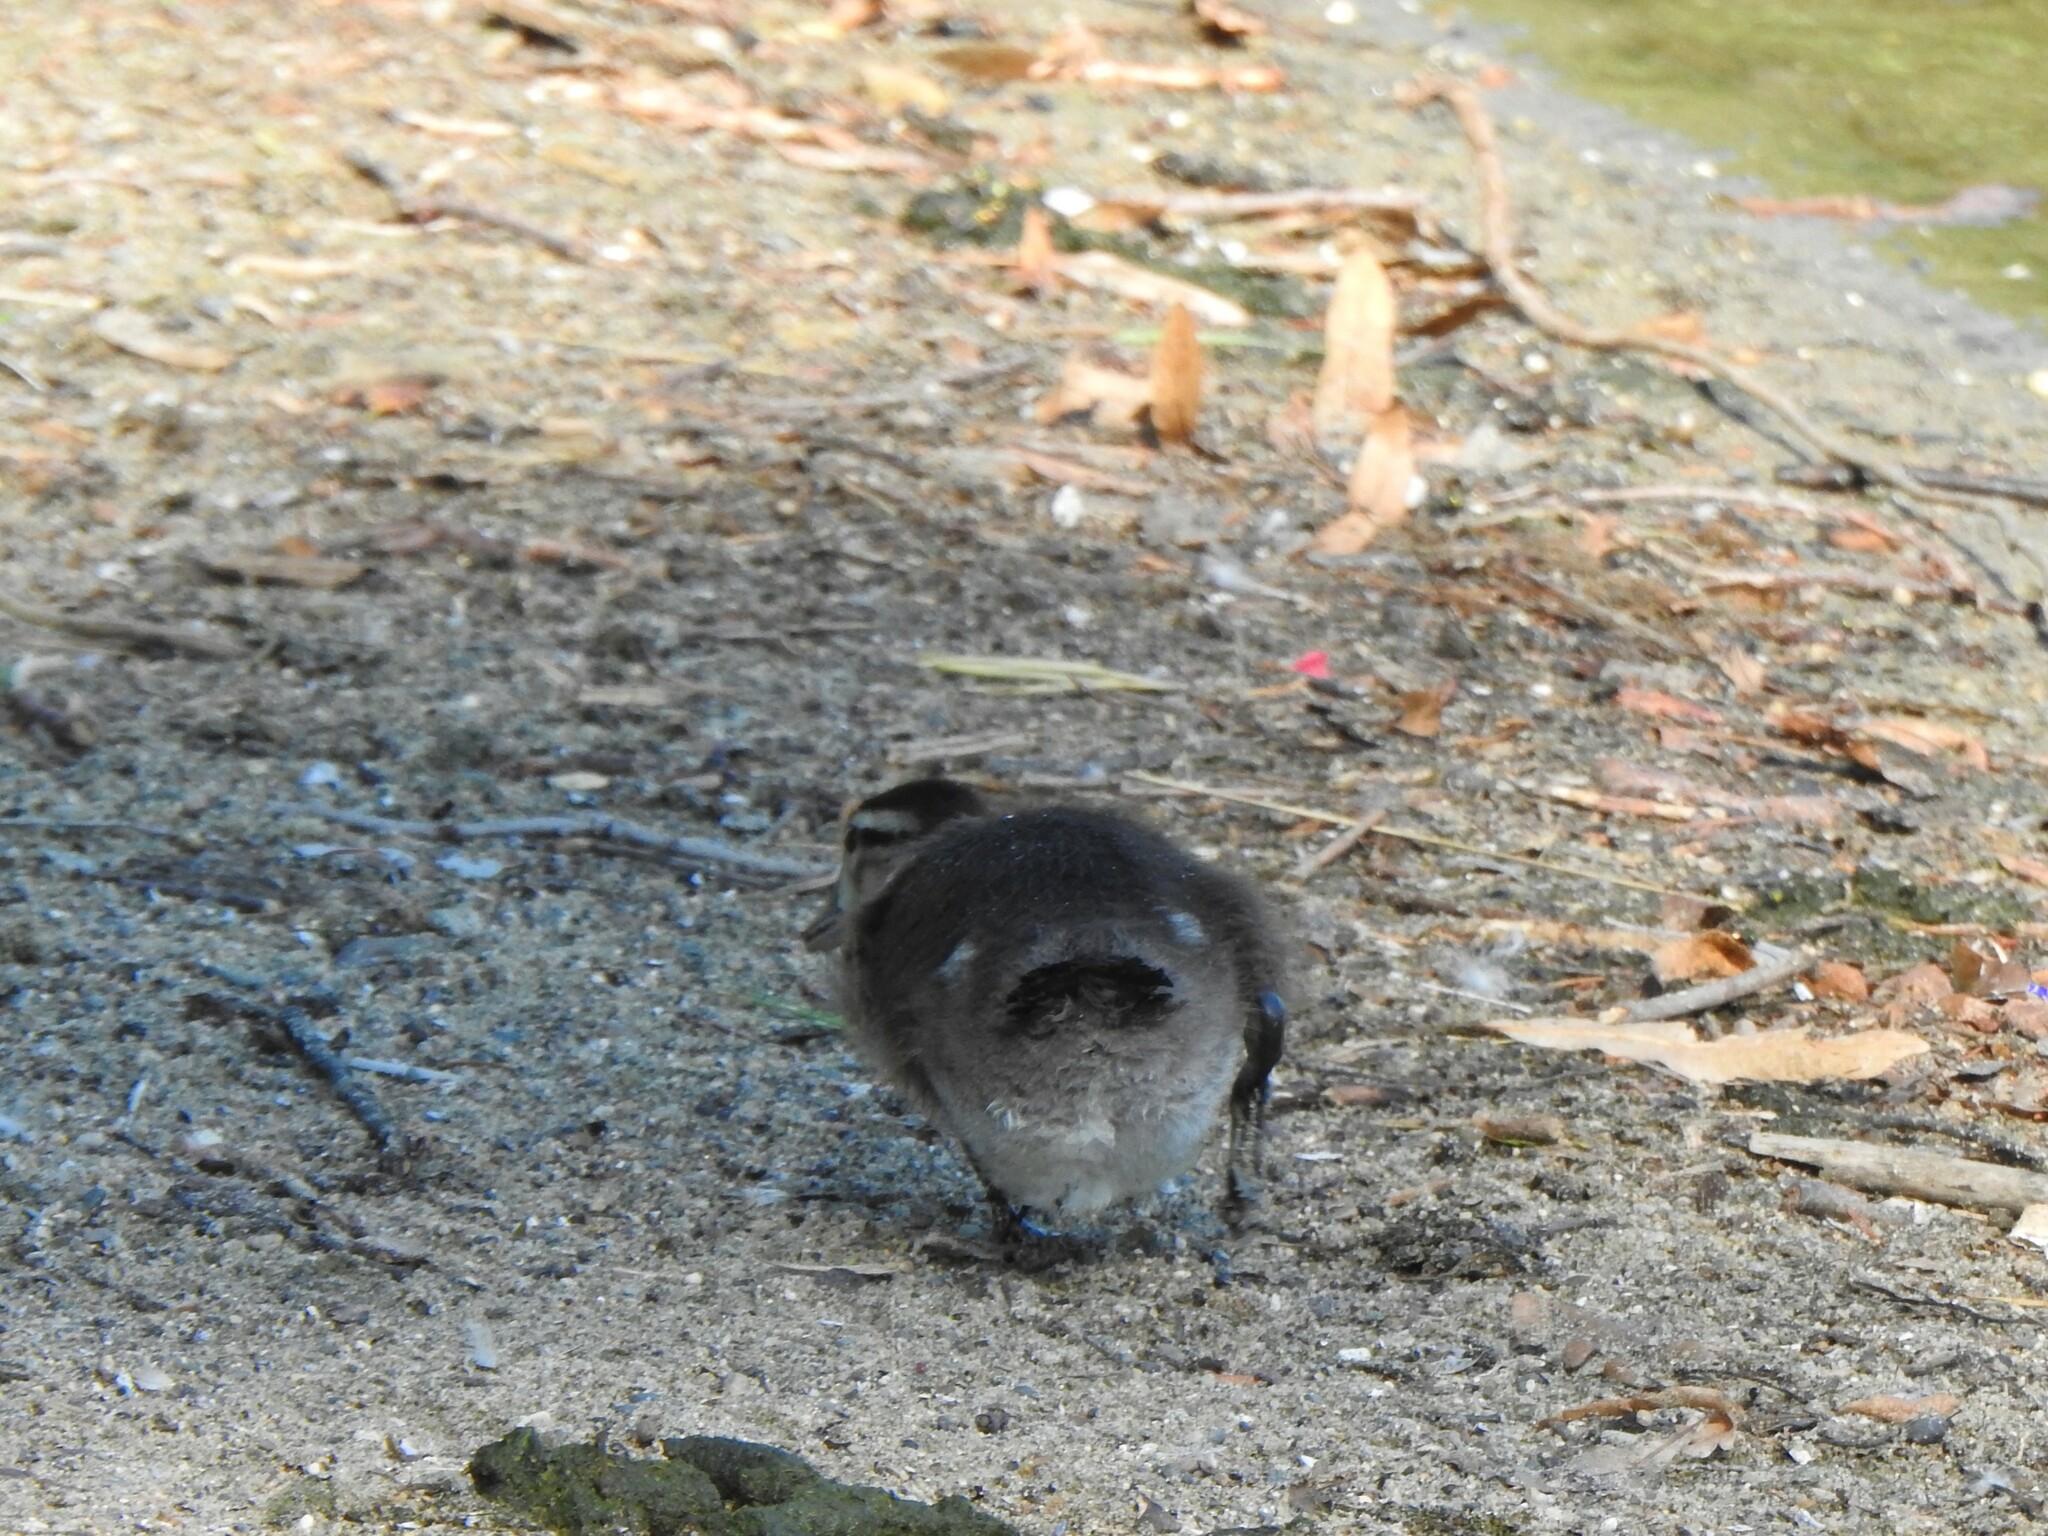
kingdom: Animalia
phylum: Chordata
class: Aves
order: Anseriformes
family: Anatidae
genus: Aix
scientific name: Aix sponsa
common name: Wood duck
